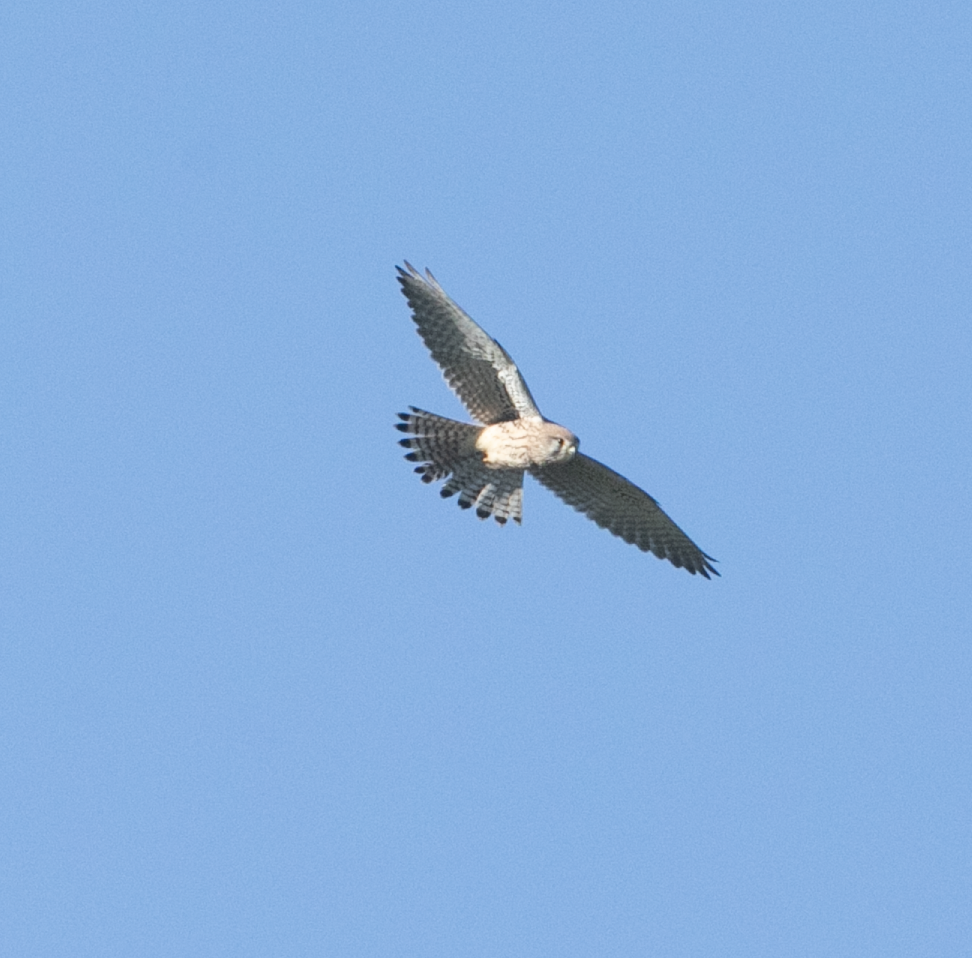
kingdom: Animalia
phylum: Chordata
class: Aves
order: Falconiformes
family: Falconidae
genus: Falco
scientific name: Falco tinnunculus
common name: Common kestrel
